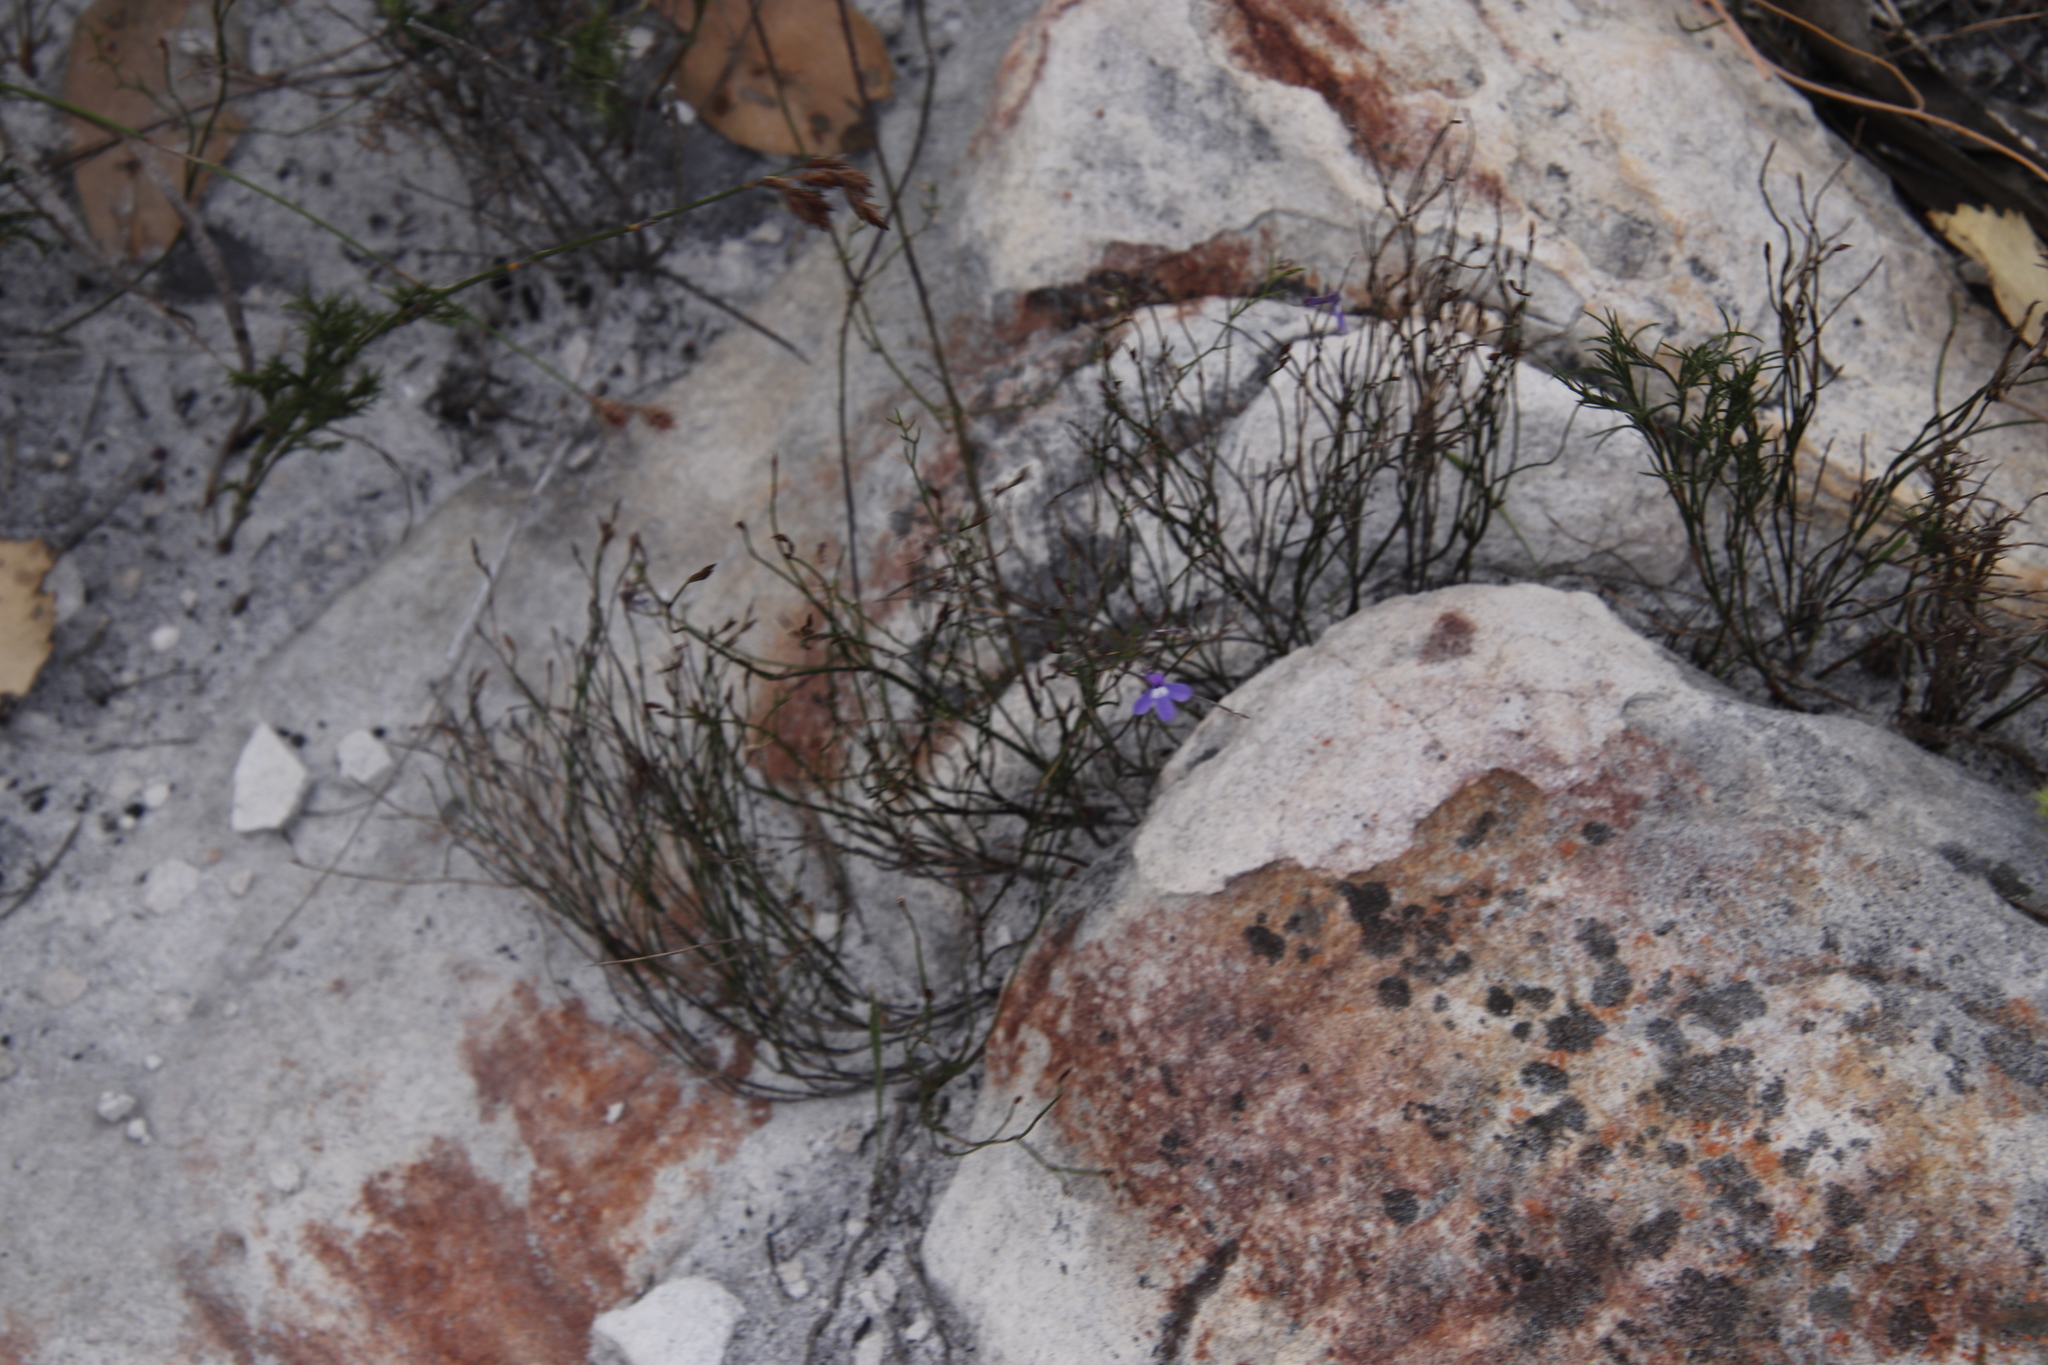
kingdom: Plantae
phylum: Tracheophyta
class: Magnoliopsida
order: Asterales
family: Campanulaceae
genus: Lobelia
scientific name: Lobelia setacea
